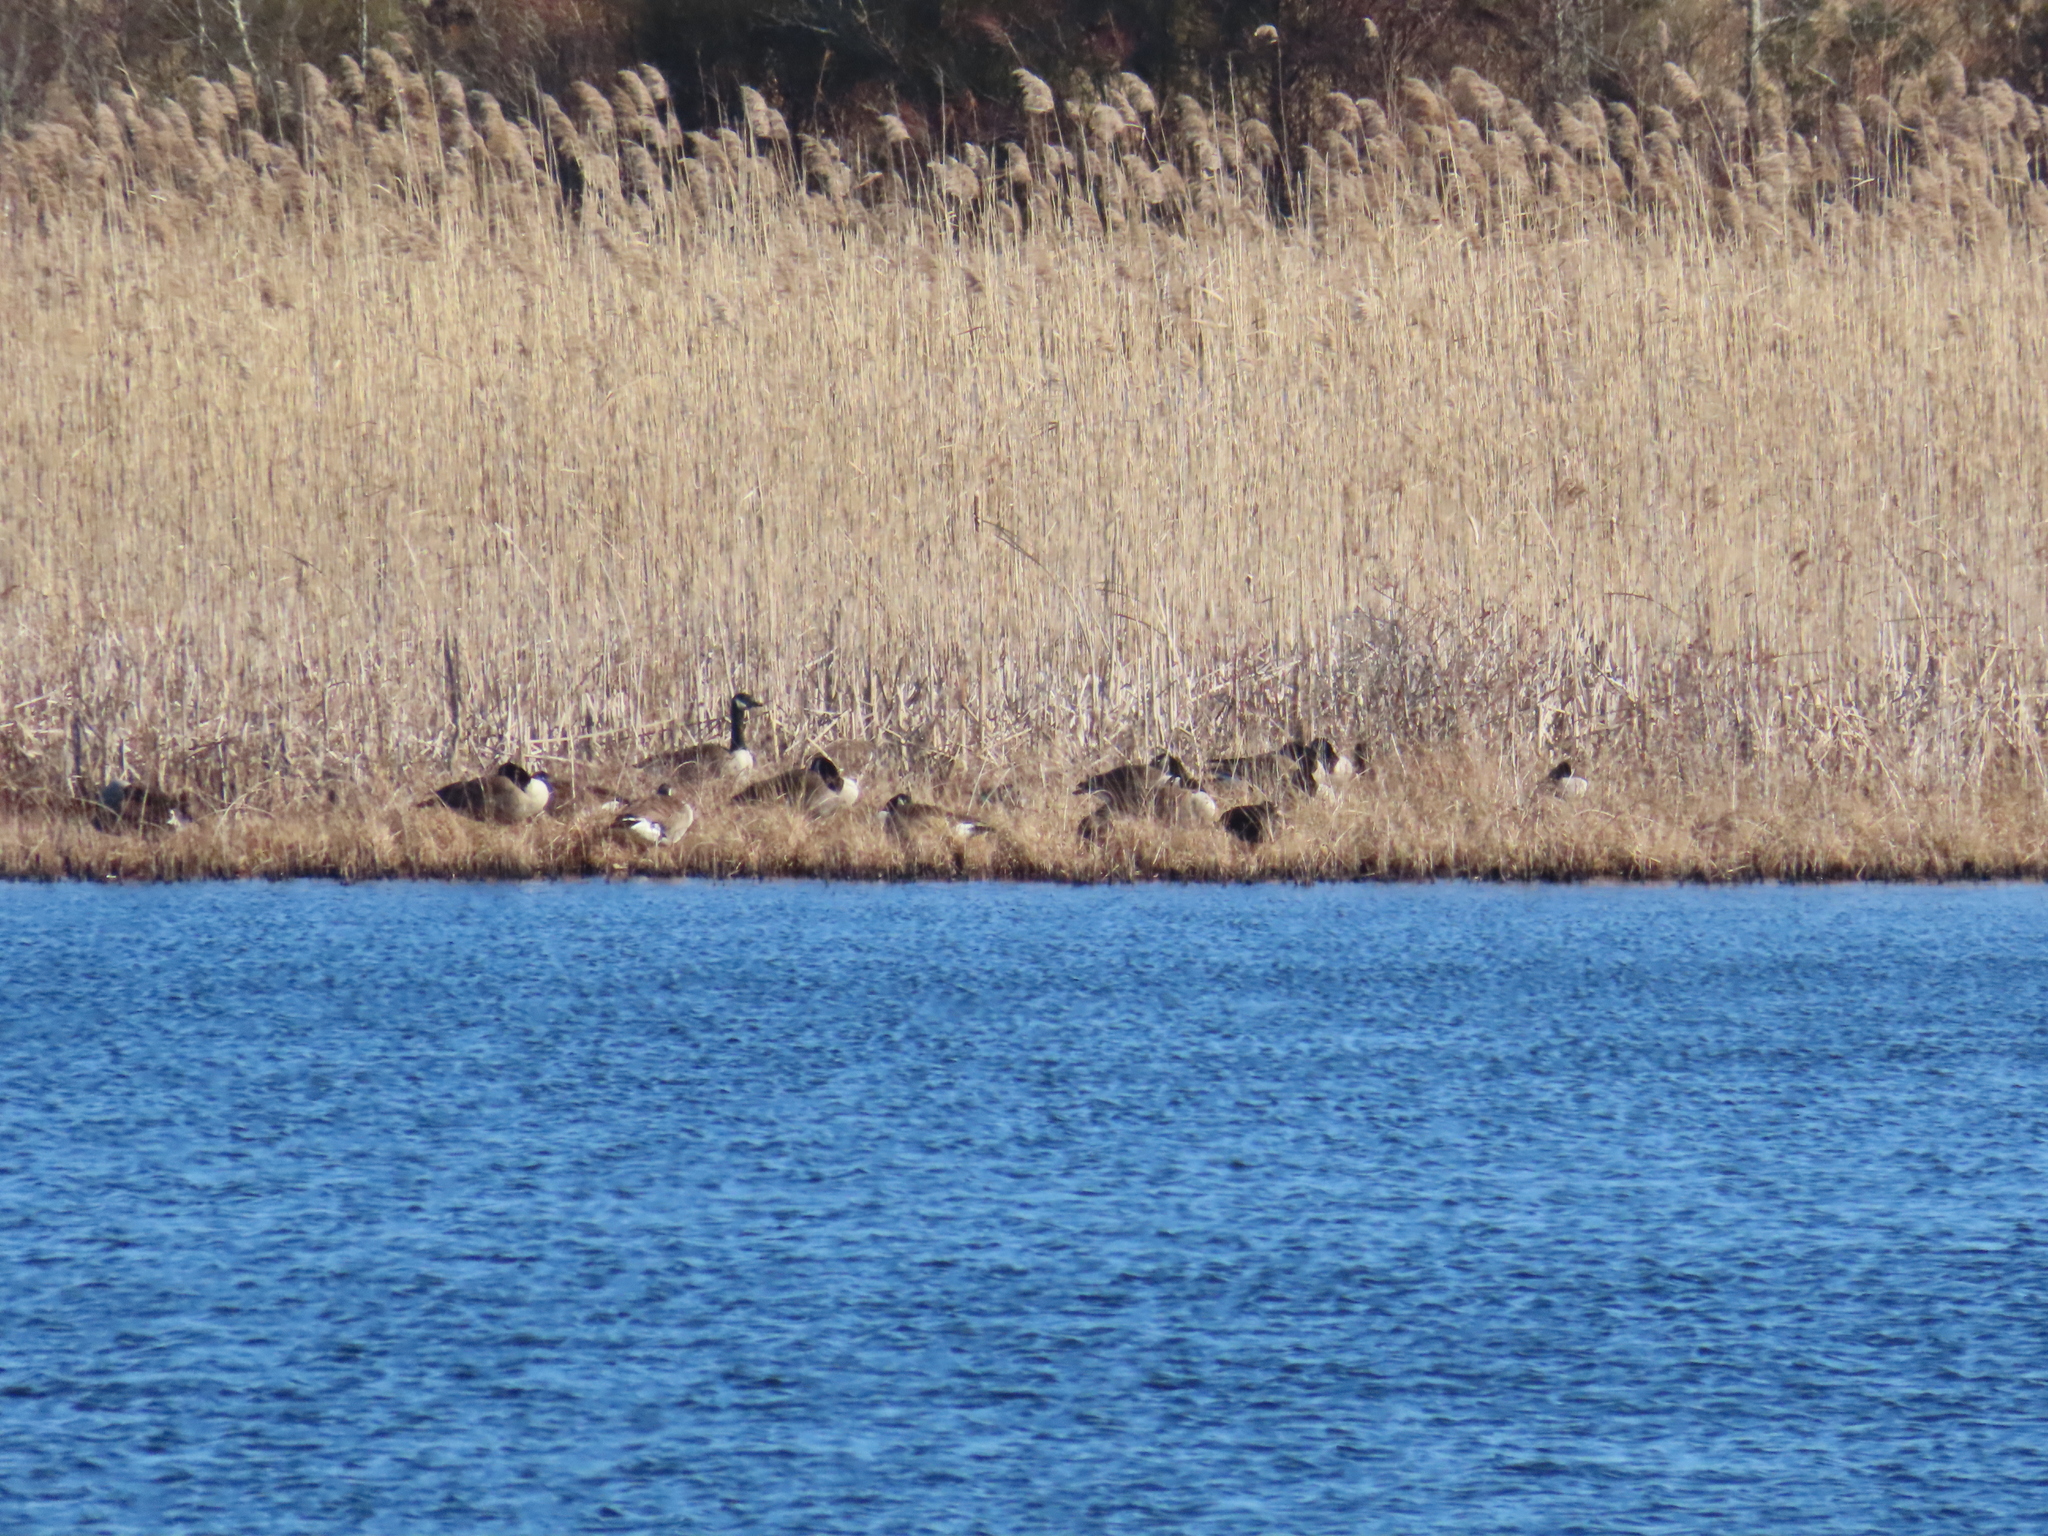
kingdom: Animalia
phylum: Chordata
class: Aves
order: Anseriformes
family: Anatidae
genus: Branta
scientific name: Branta canadensis
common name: Canada goose
